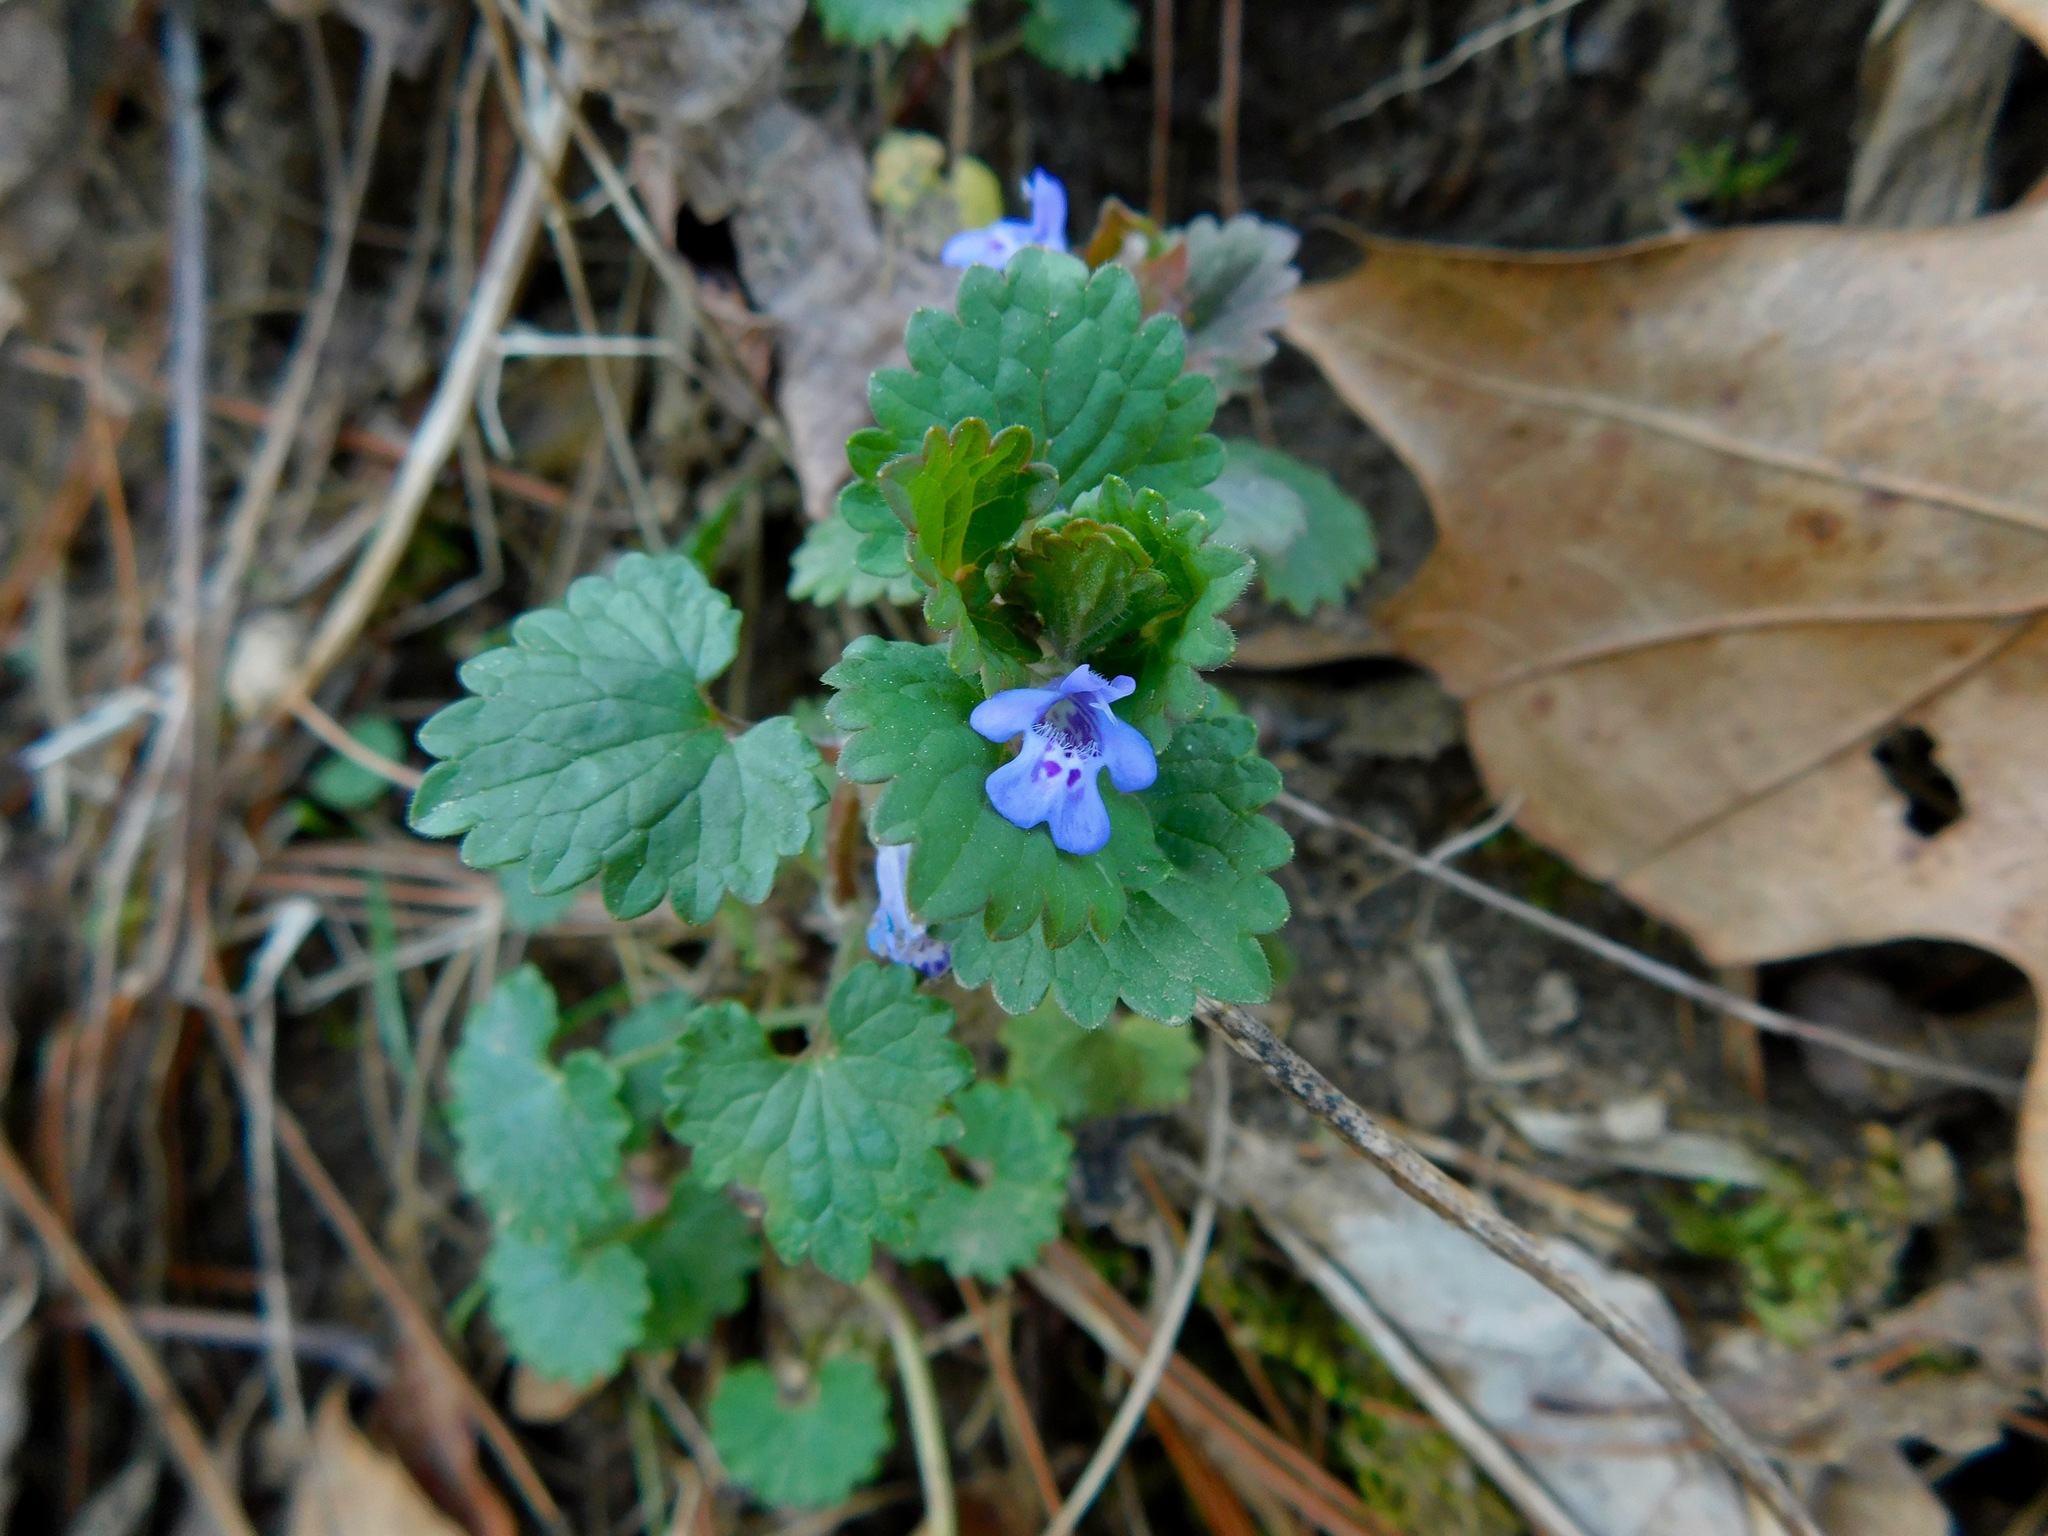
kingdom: Plantae
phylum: Tracheophyta
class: Magnoliopsida
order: Lamiales
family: Lamiaceae
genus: Glechoma
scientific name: Glechoma hederacea
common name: Ground ivy
